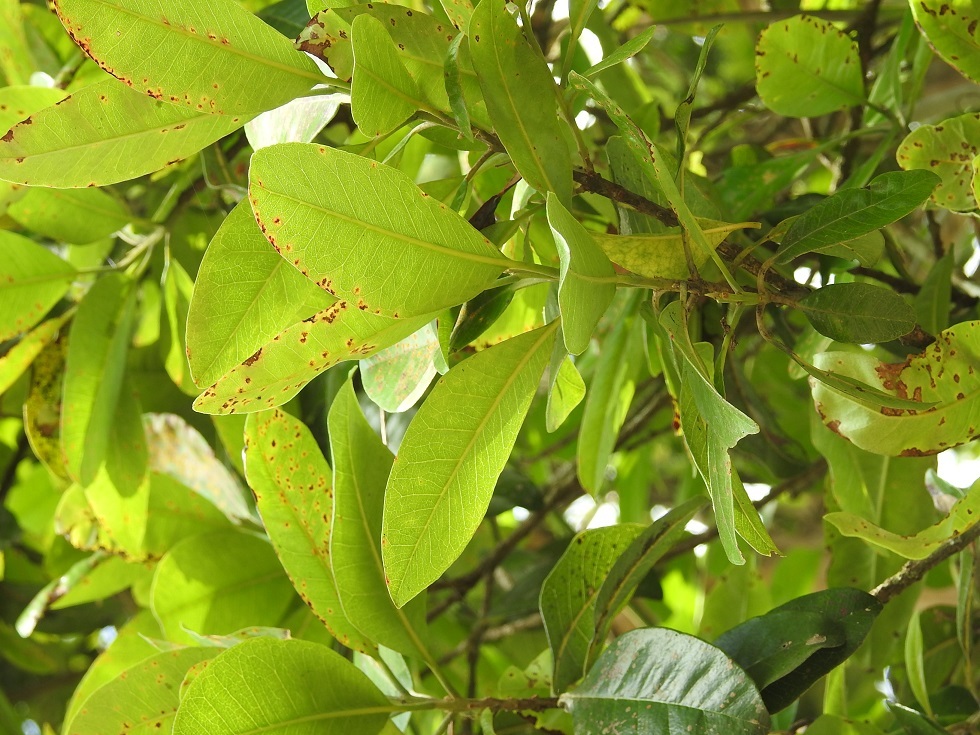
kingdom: Plantae
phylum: Tracheophyta
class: Magnoliopsida
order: Myrtales
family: Myrtaceae
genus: Pimenta
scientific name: Pimenta dioica
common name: Allspice
